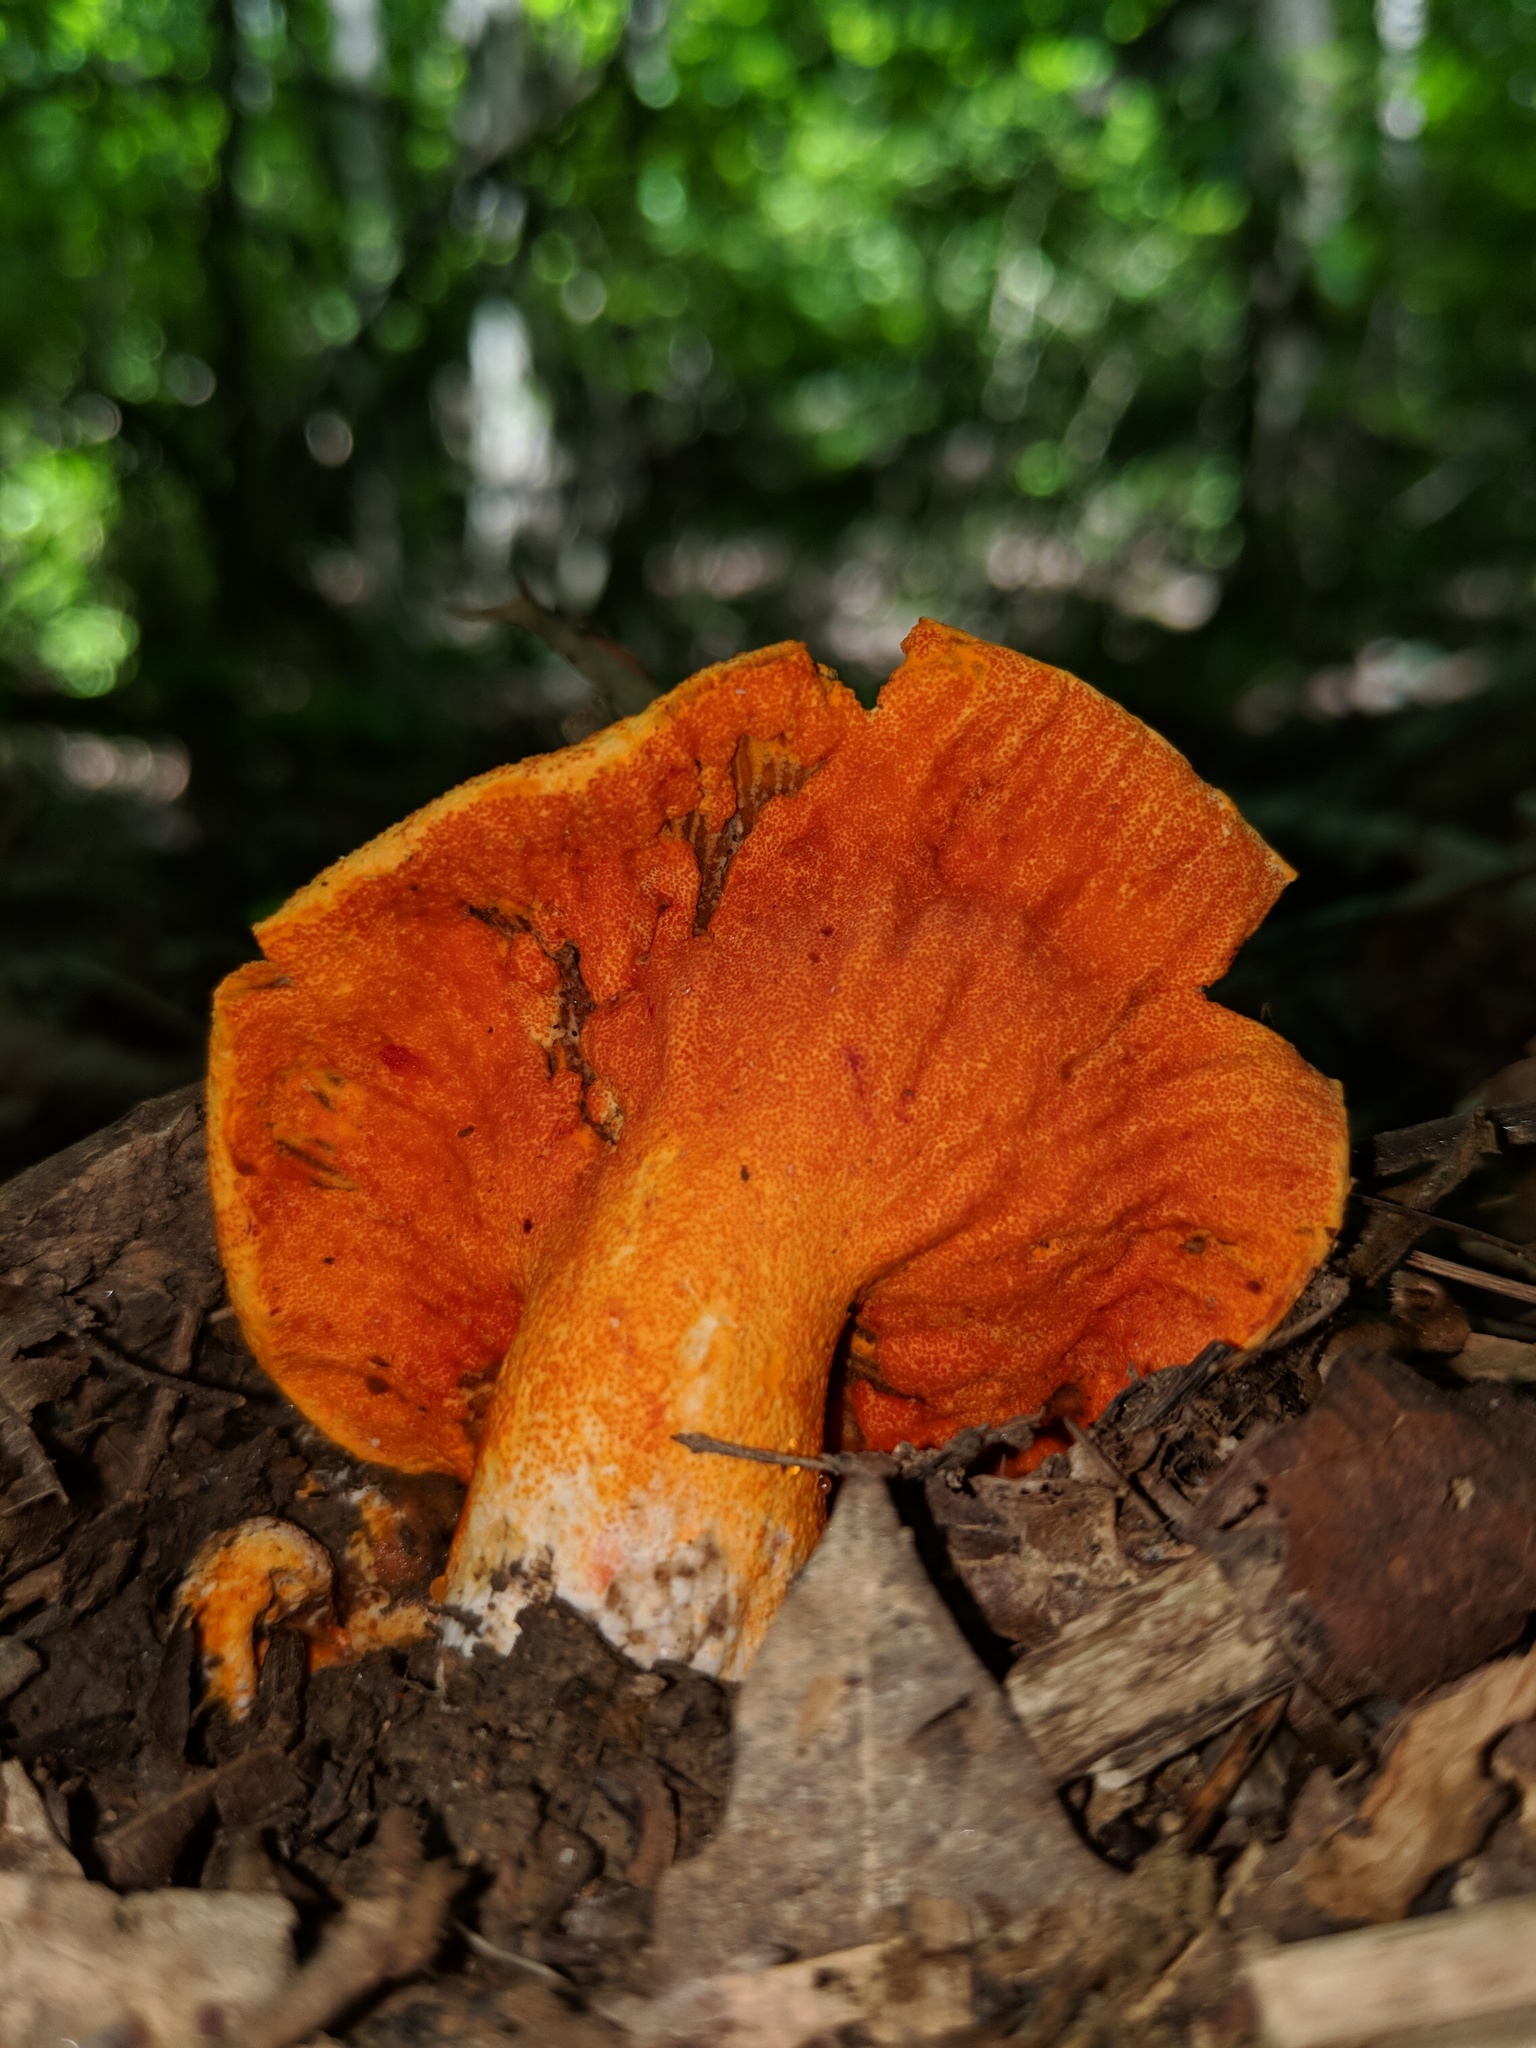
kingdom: Fungi
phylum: Ascomycota
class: Sordariomycetes
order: Hypocreales
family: Hypocreaceae
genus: Hypomyces
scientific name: Hypomyces lactifluorum
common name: Lobster mushroom
